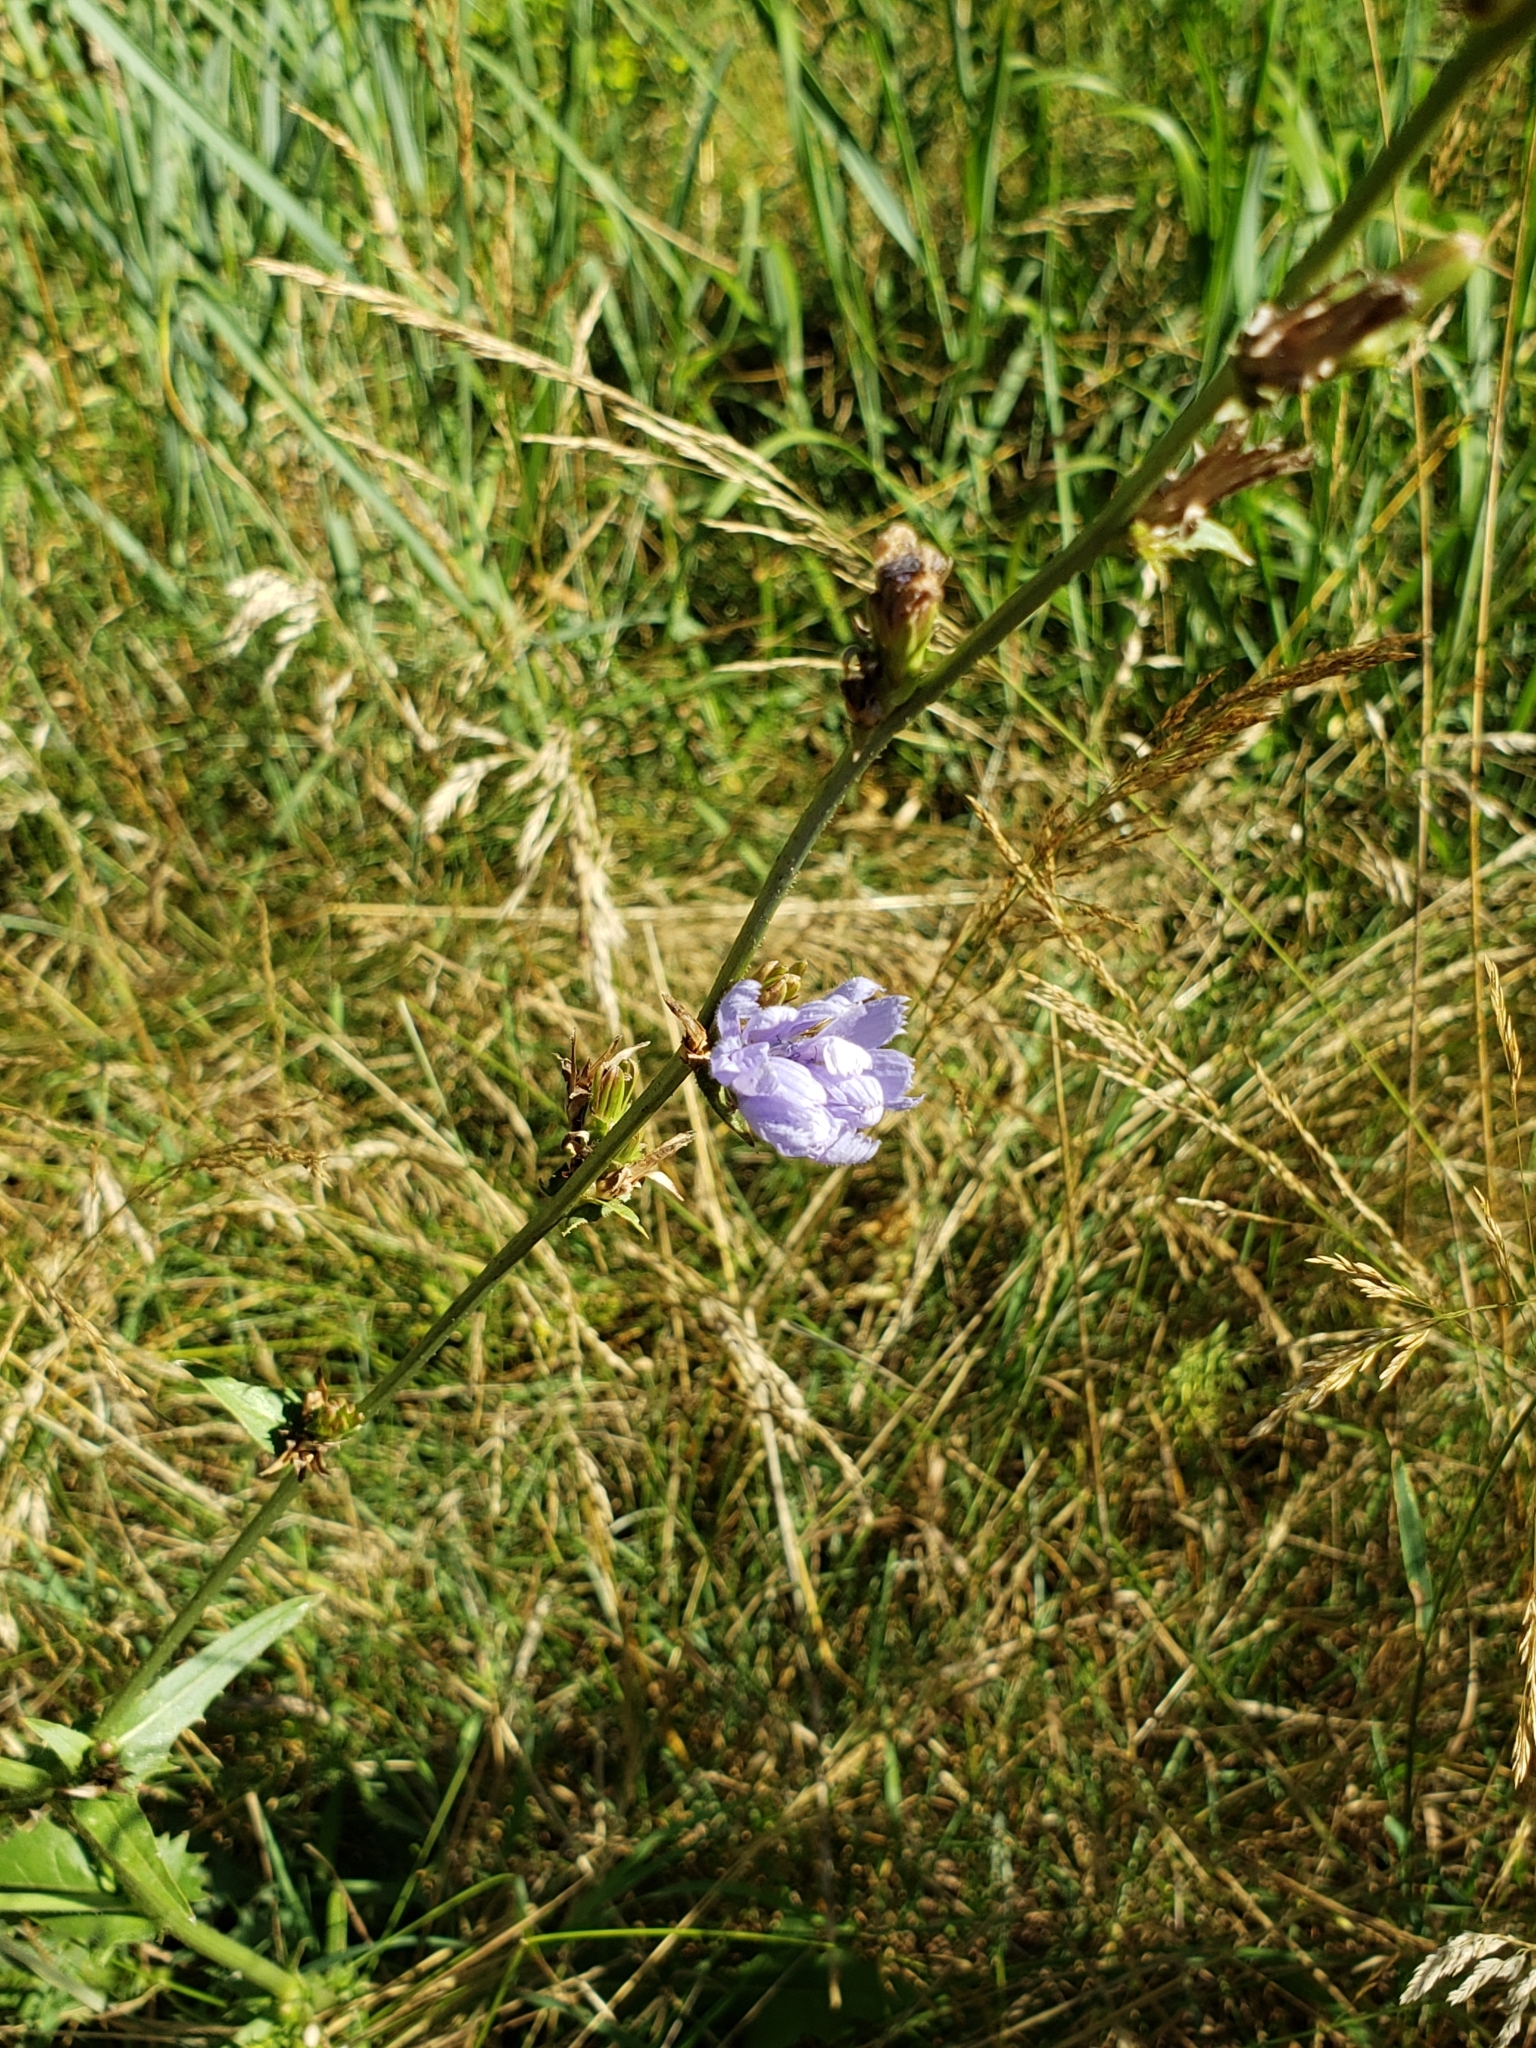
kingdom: Plantae
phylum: Tracheophyta
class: Magnoliopsida
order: Asterales
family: Asteraceae
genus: Cichorium
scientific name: Cichorium intybus
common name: Chicory
